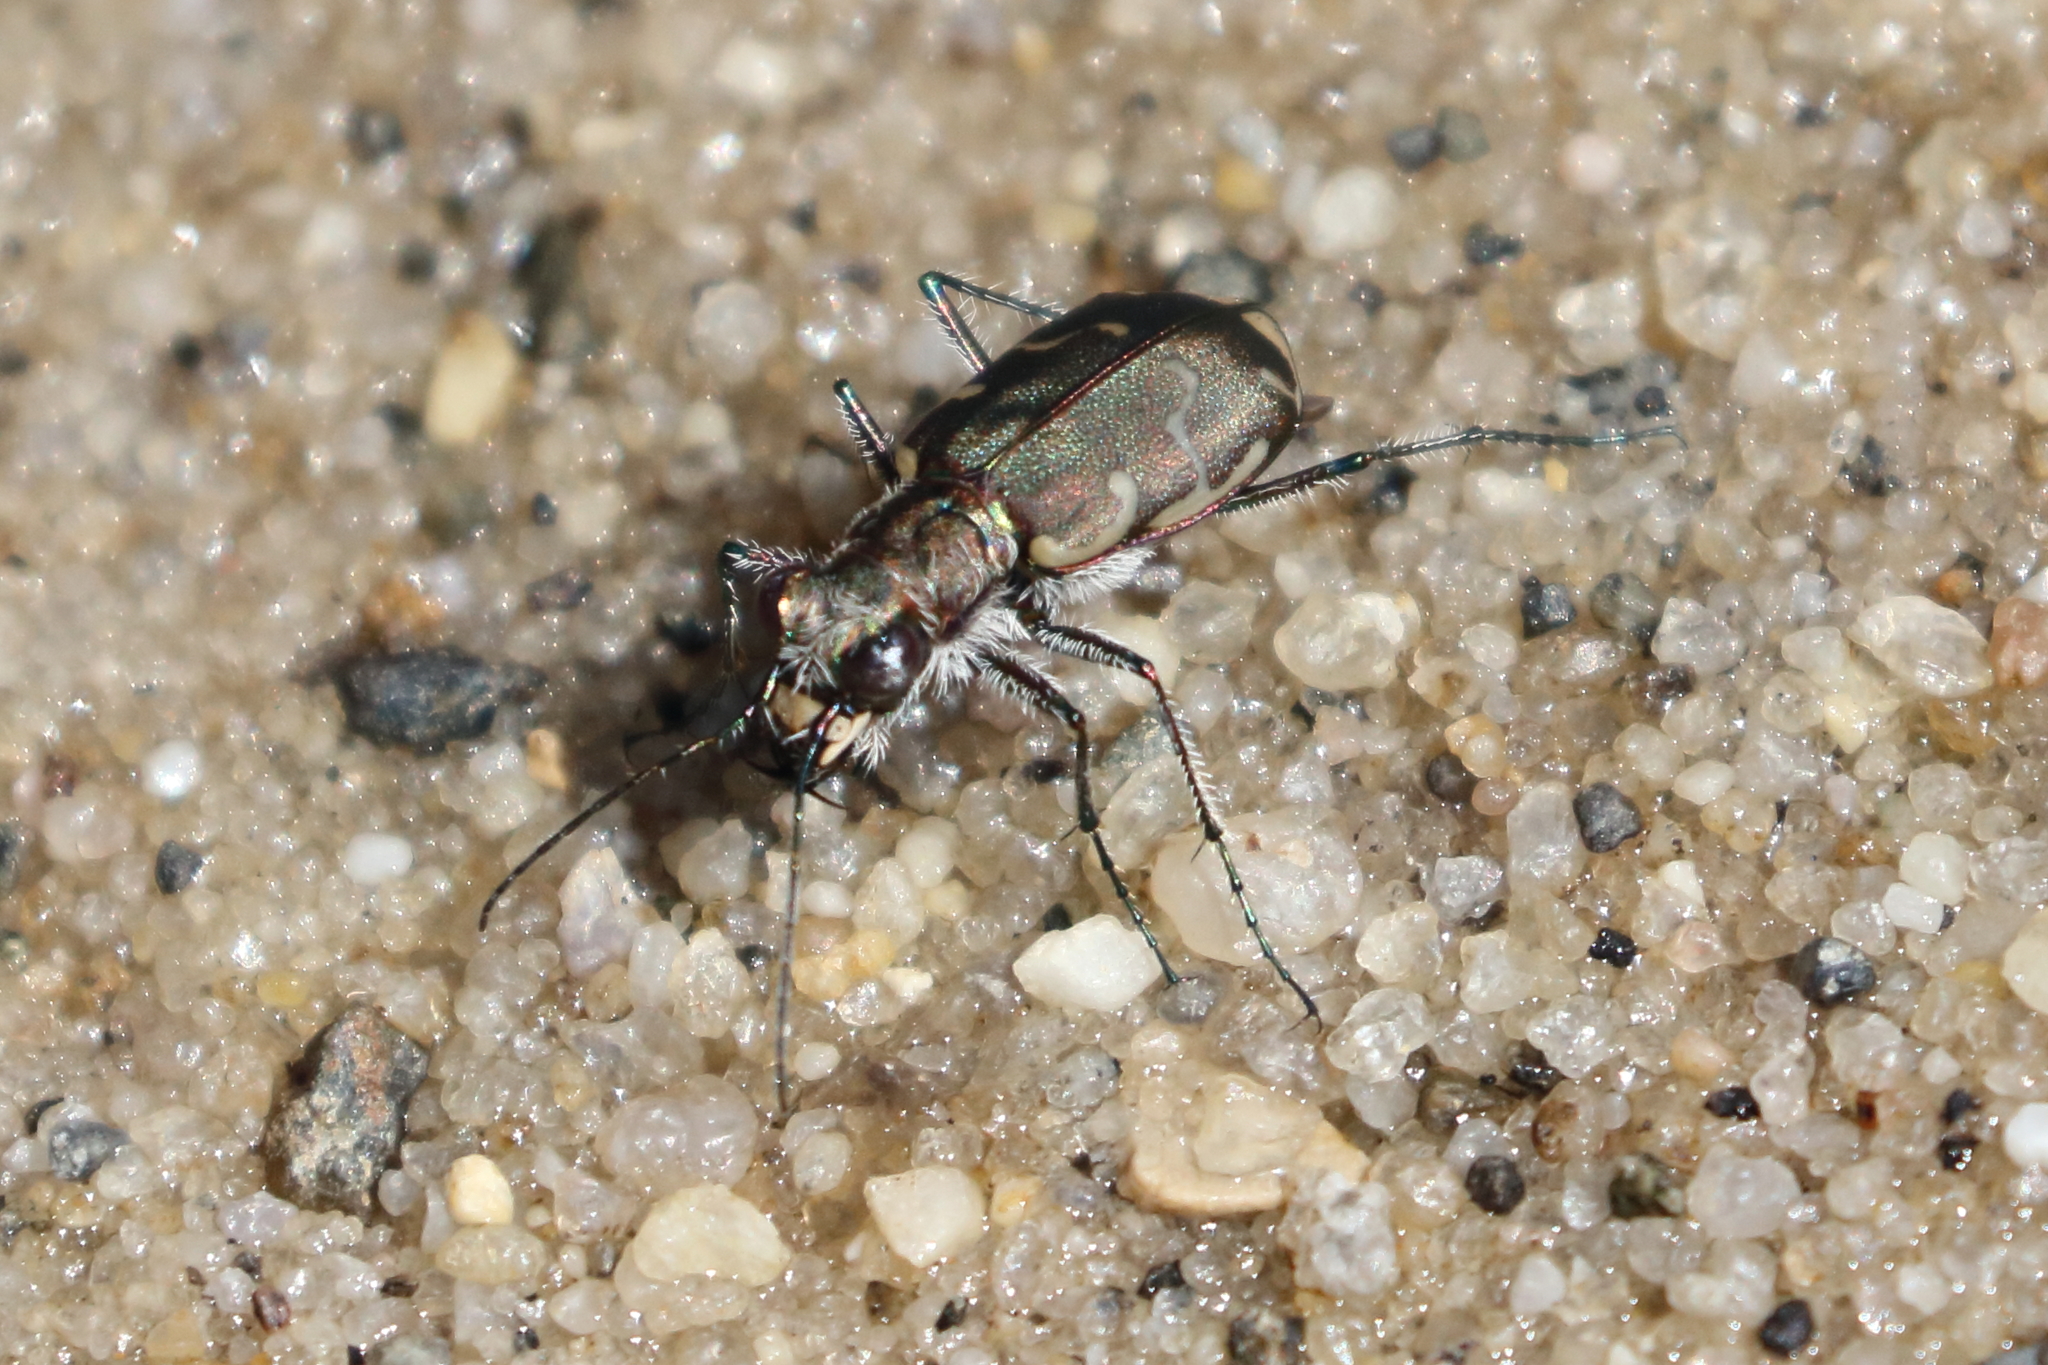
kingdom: Animalia
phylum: Arthropoda
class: Insecta
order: Coleoptera
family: Carabidae
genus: Cicindela
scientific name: Cicindela repanda
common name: Bronzed tiger beetle
